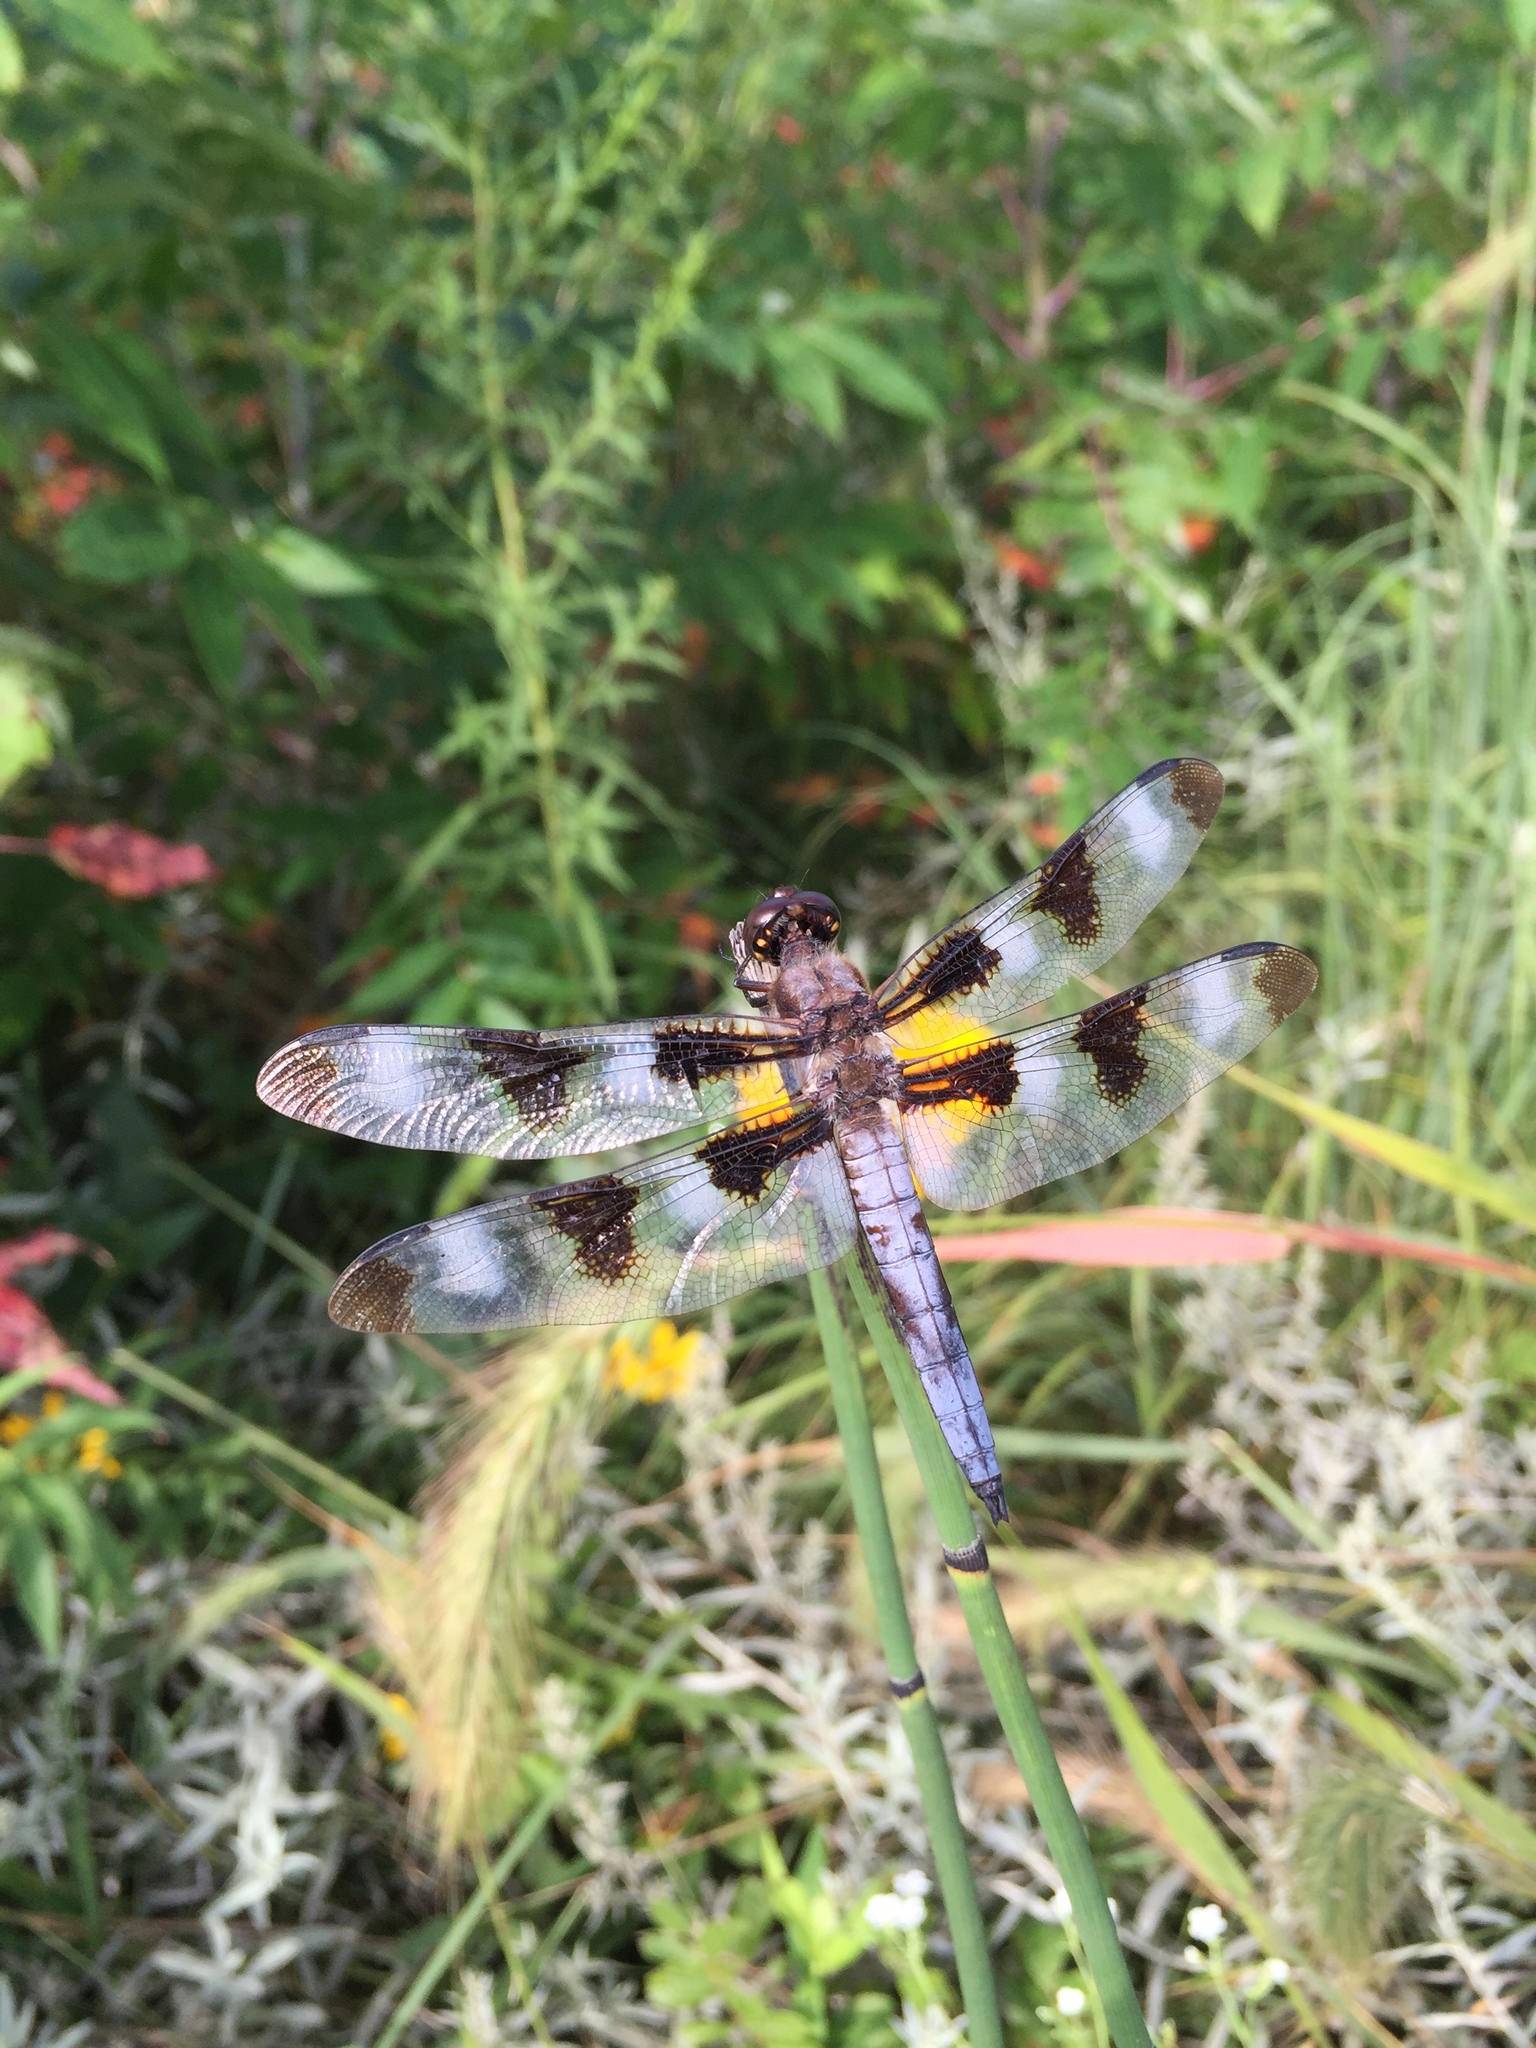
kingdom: Animalia
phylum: Arthropoda
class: Insecta
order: Odonata
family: Libellulidae
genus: Libellula
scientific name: Libellula pulchella
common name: Twelve-spotted skimmer
